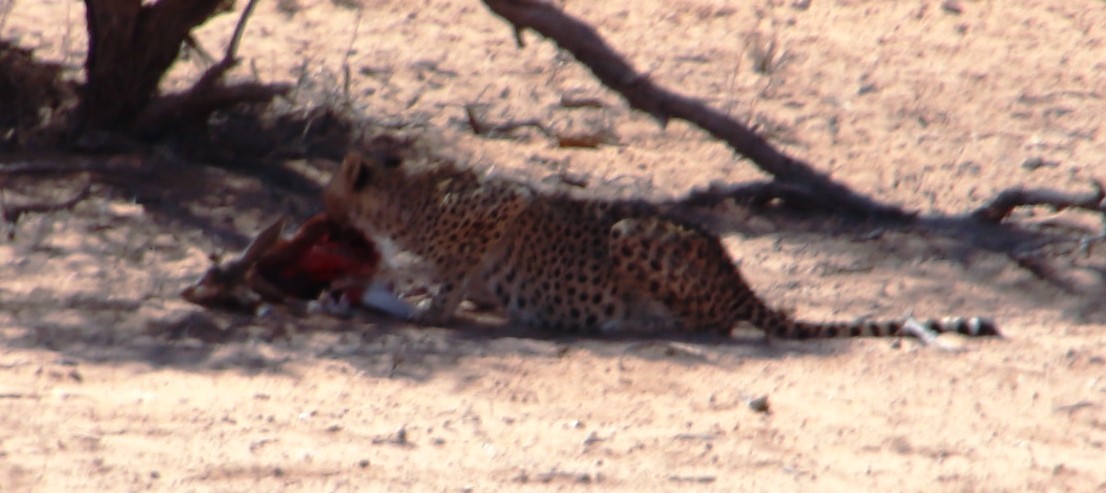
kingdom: Animalia
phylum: Chordata
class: Mammalia
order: Carnivora
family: Felidae
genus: Acinonyx
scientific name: Acinonyx jubatus
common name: Cheetah
